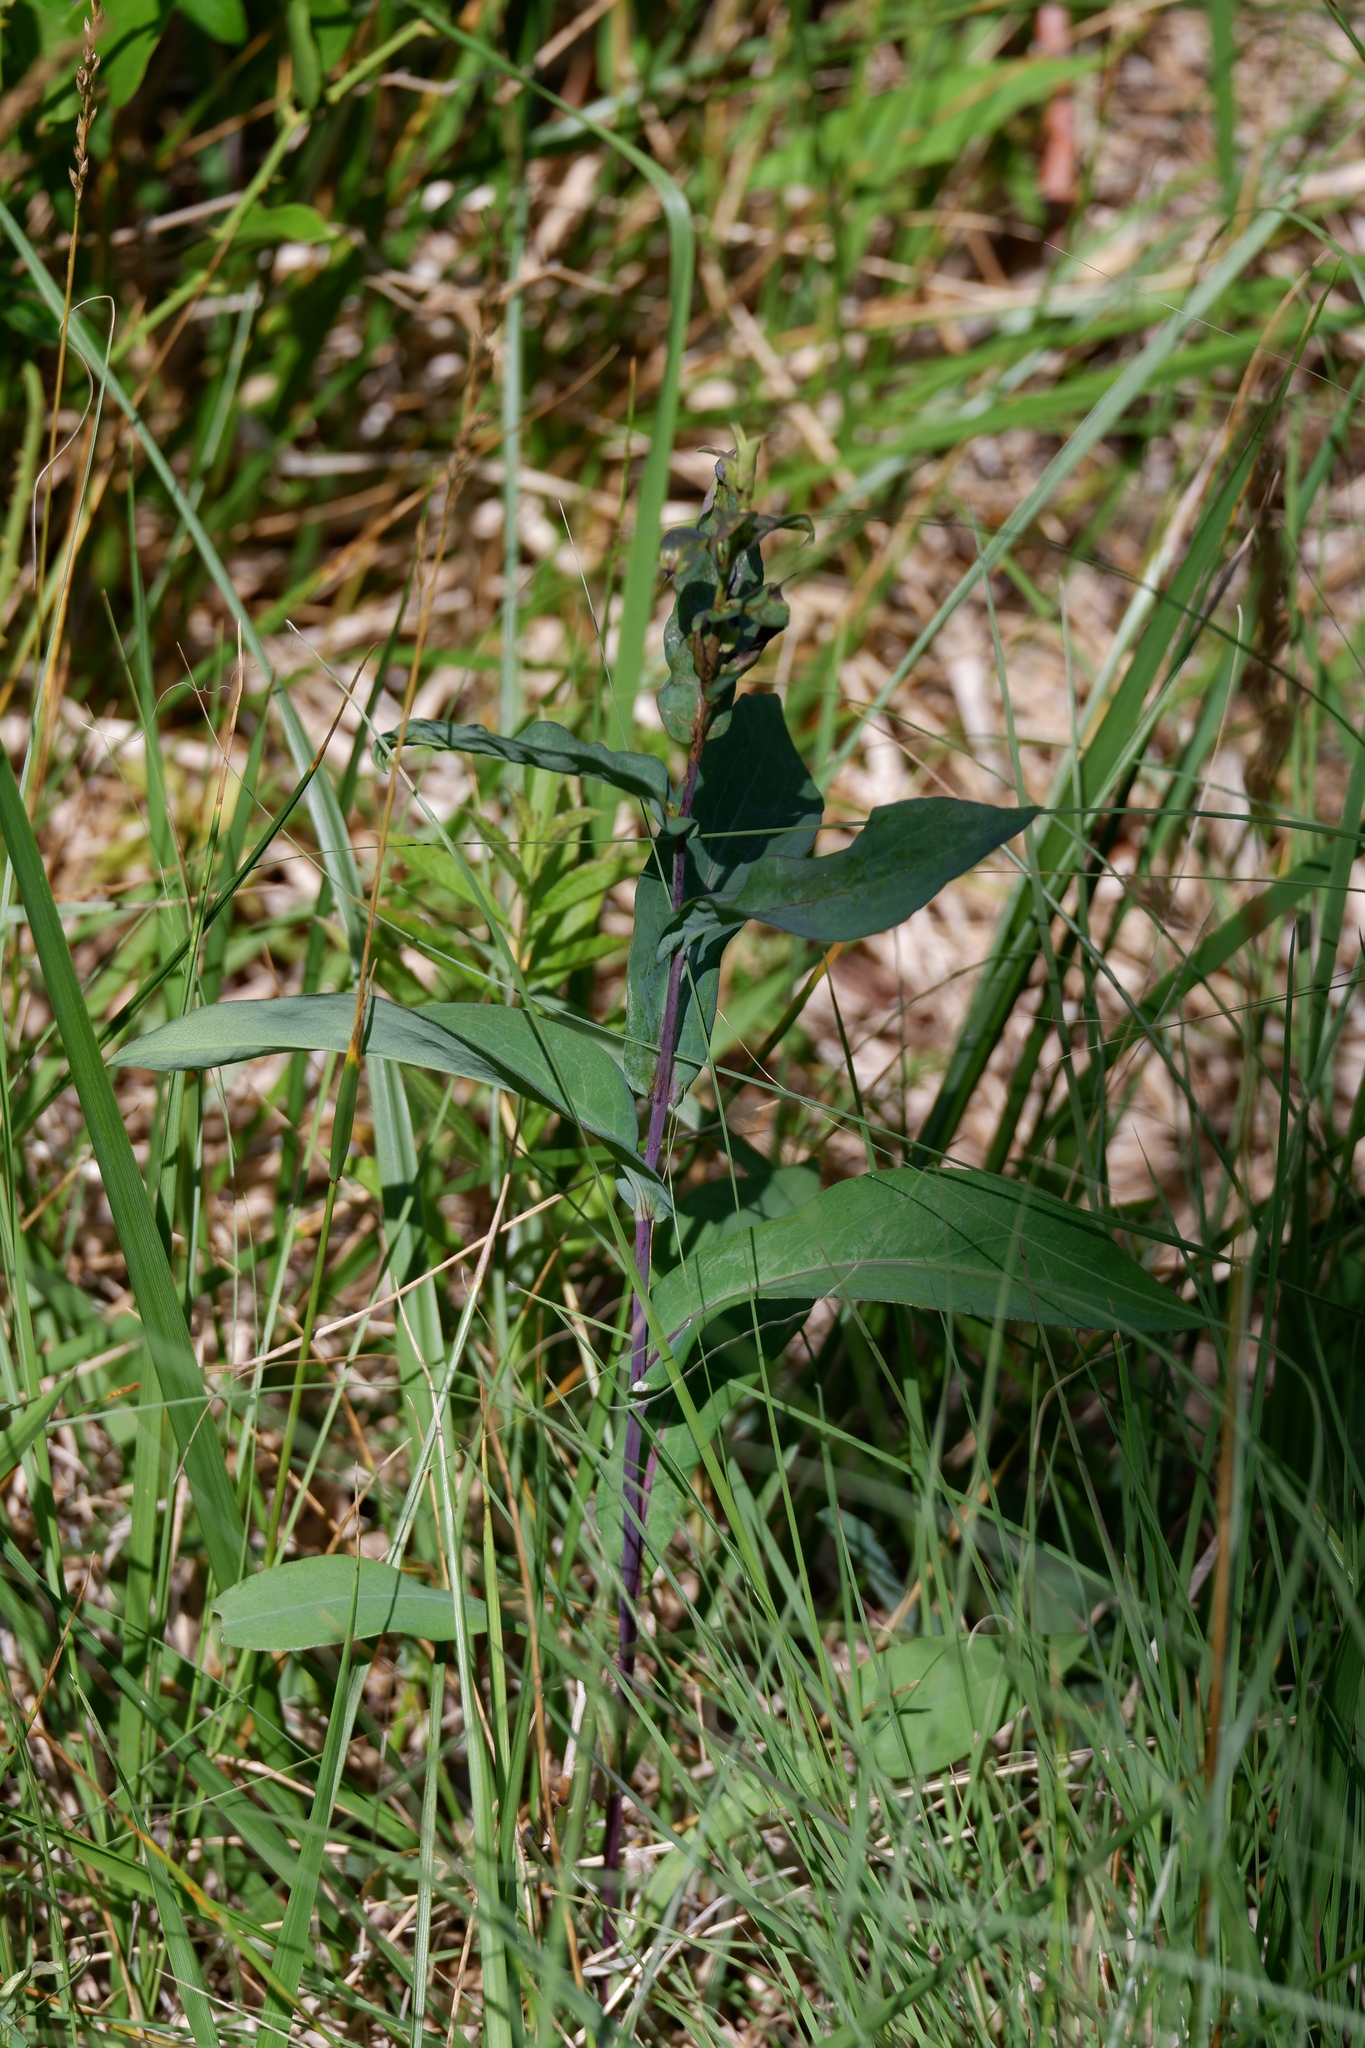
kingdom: Plantae
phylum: Tracheophyta
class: Magnoliopsida
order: Asterales
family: Asteraceae
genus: Symphyotrichum
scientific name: Symphyotrichum laeve
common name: Glaucous aster
